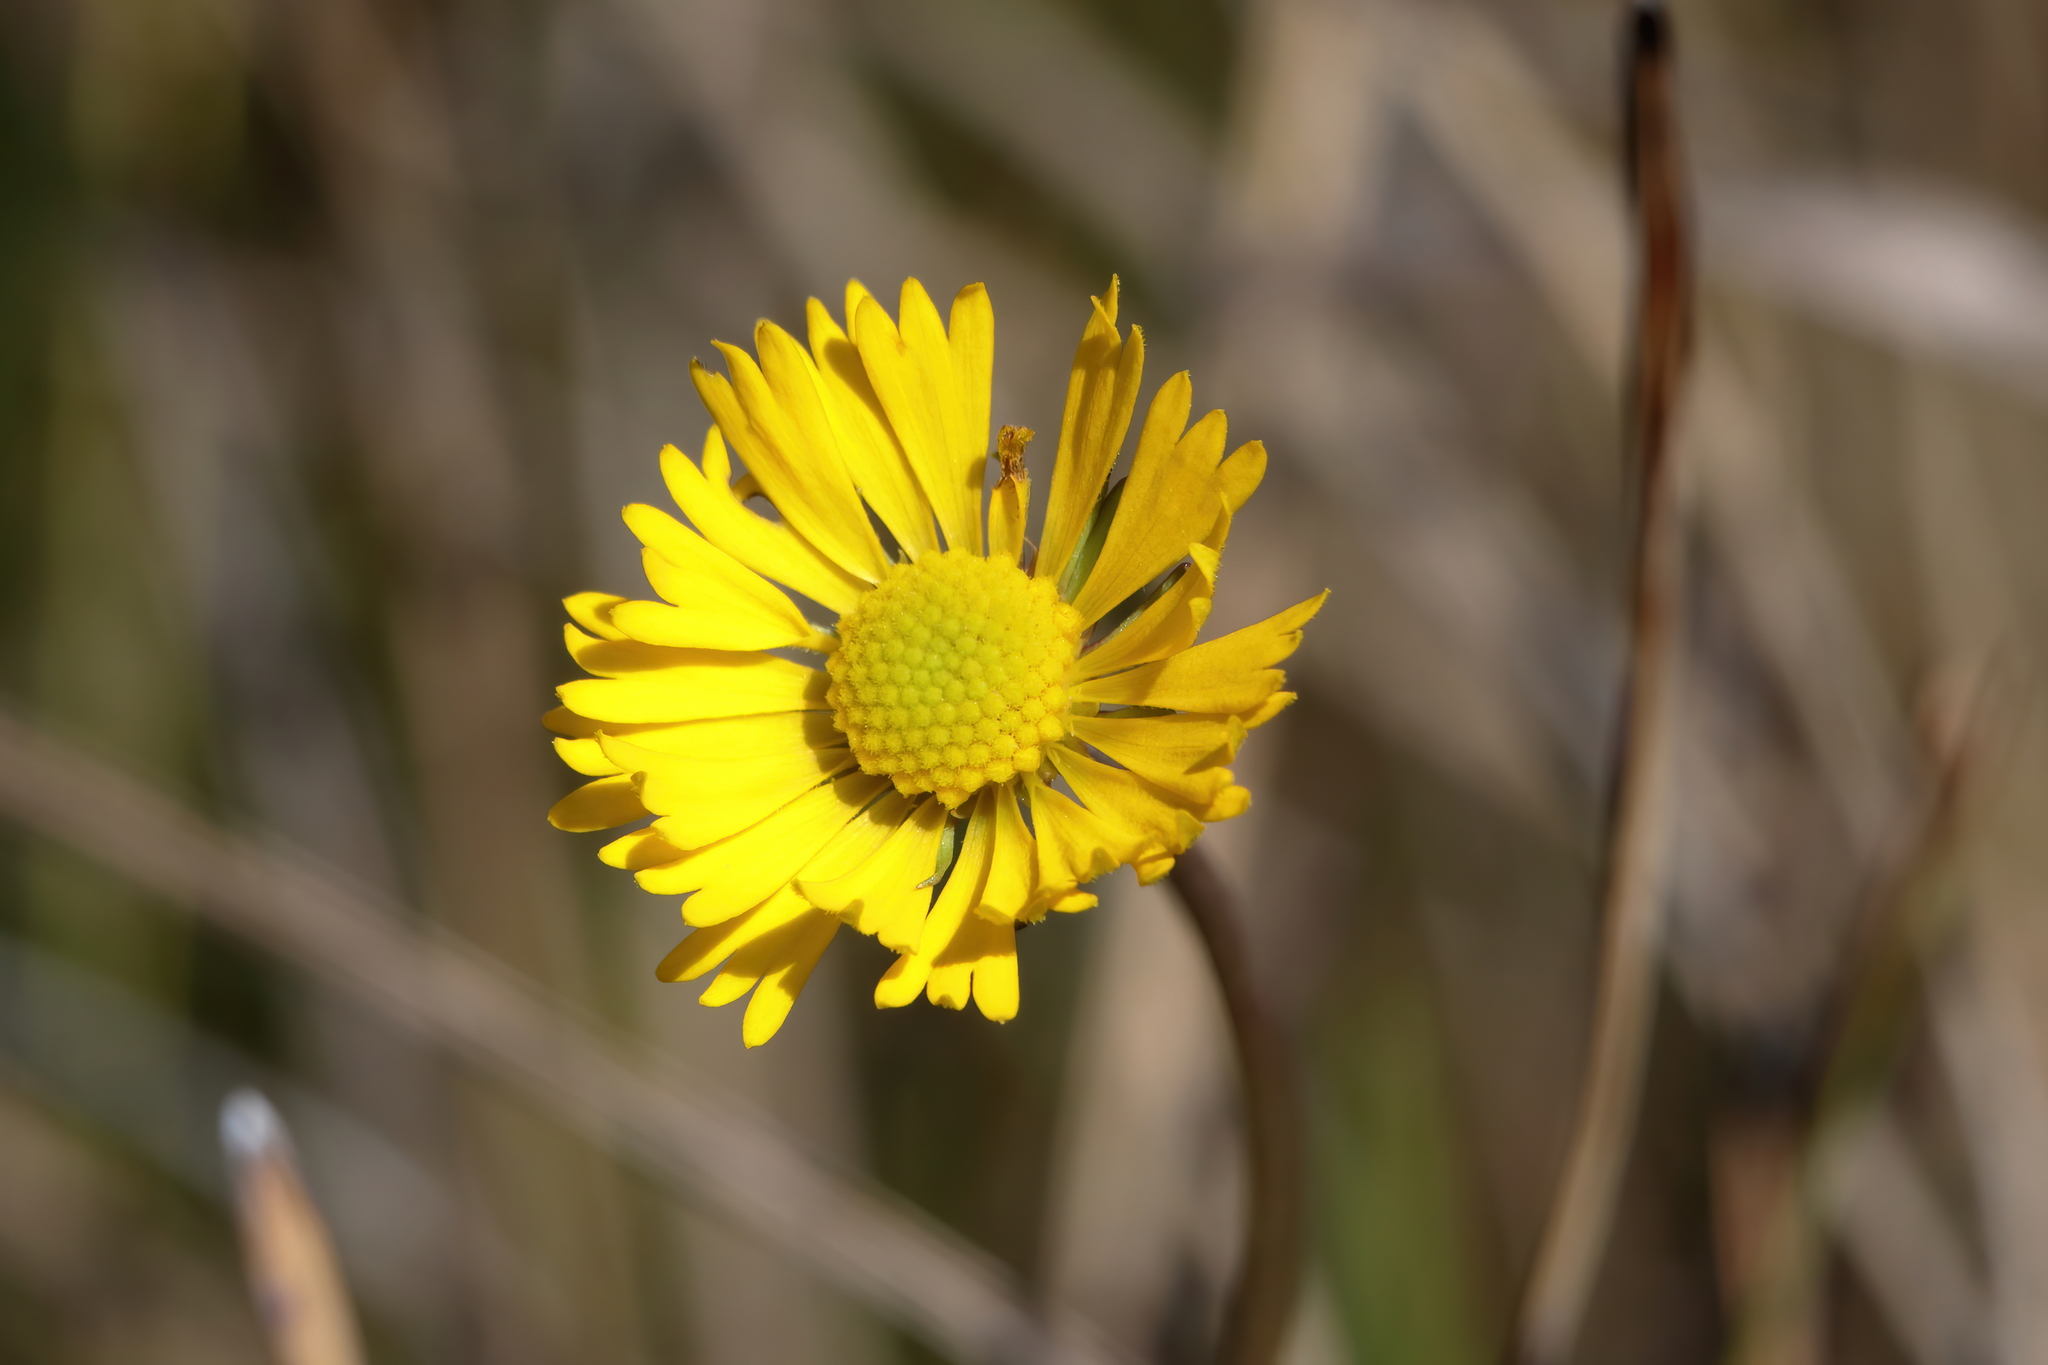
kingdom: Plantae
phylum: Tracheophyta
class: Magnoliopsida
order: Asterales
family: Asteraceae
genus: Helenium
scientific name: Helenium vernale
